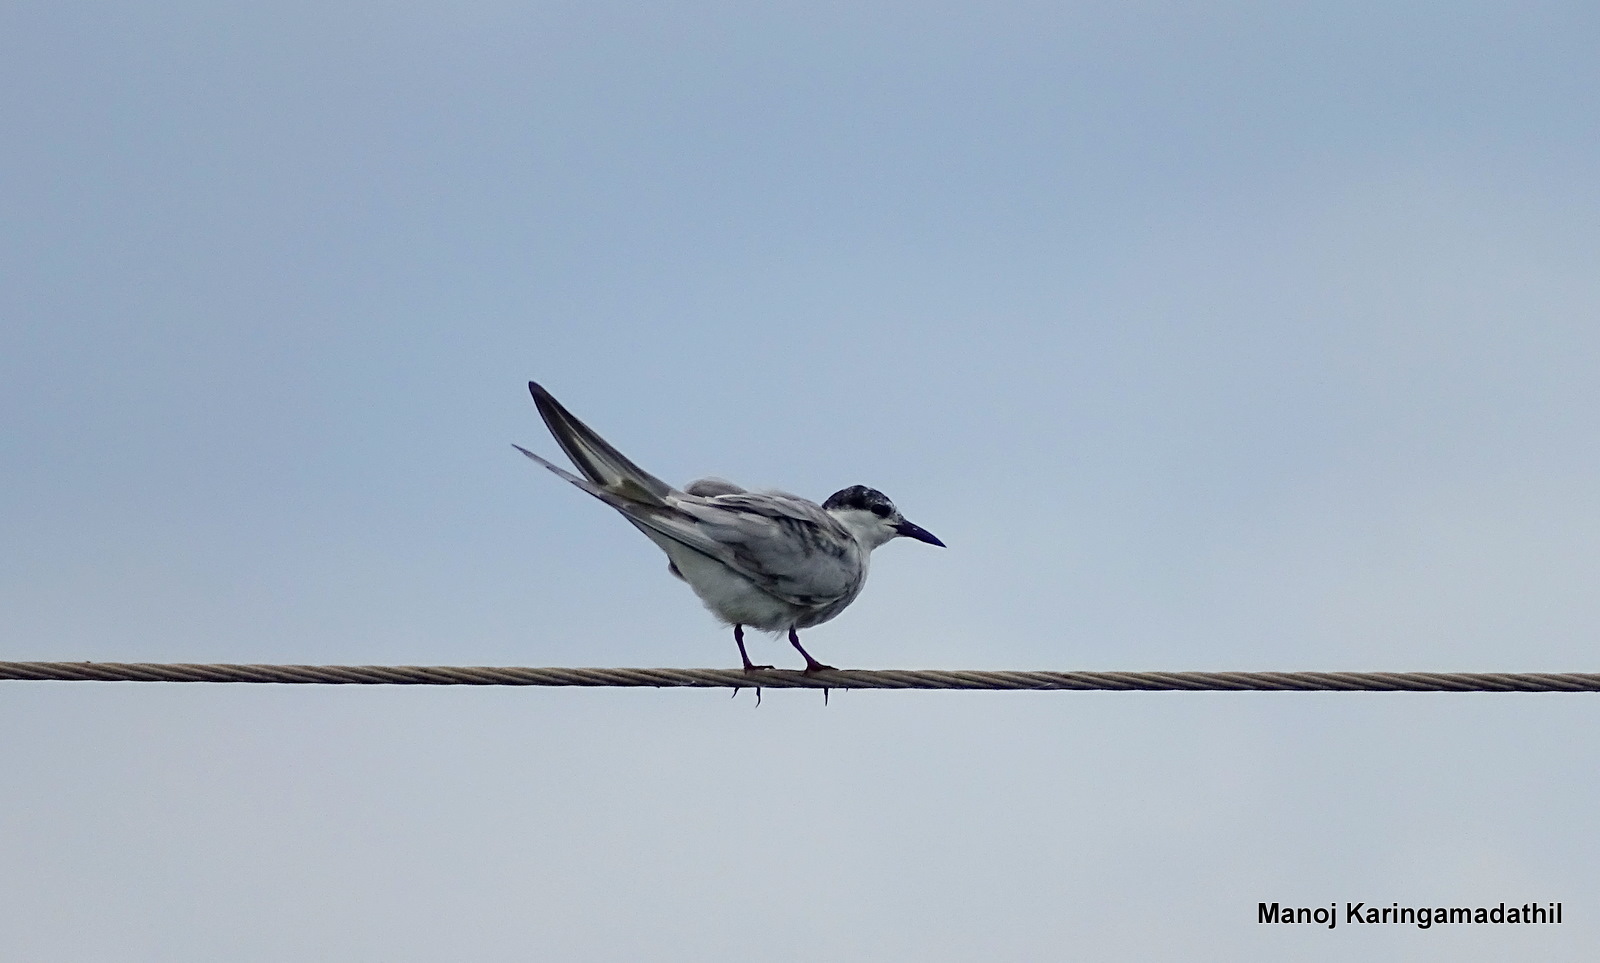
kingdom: Animalia
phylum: Chordata
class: Aves
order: Charadriiformes
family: Laridae
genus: Chlidonias
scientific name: Chlidonias hybrida
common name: Whiskered tern
